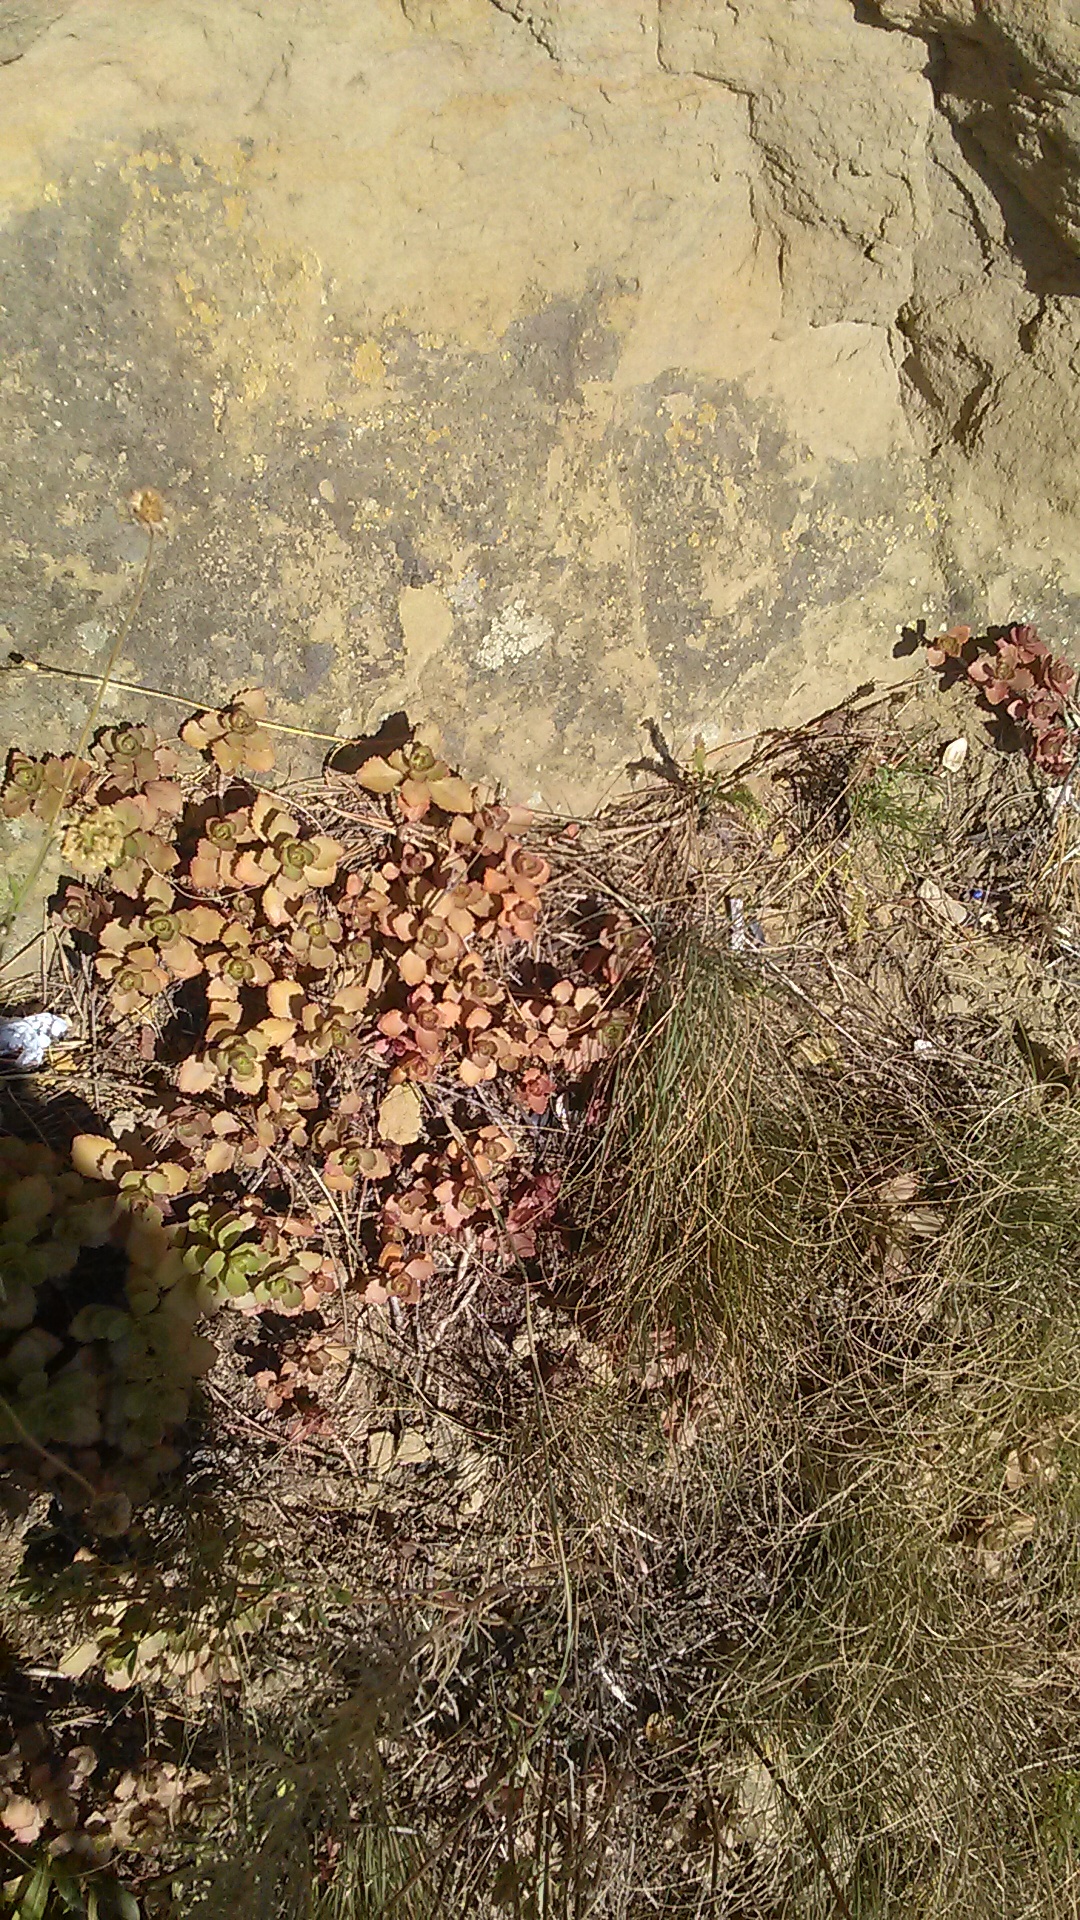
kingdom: Plantae
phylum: Tracheophyta
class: Magnoliopsida
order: Saxifragales
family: Crassulaceae
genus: Phedimus
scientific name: Phedimus spurius
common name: Caucasian stonecrop
